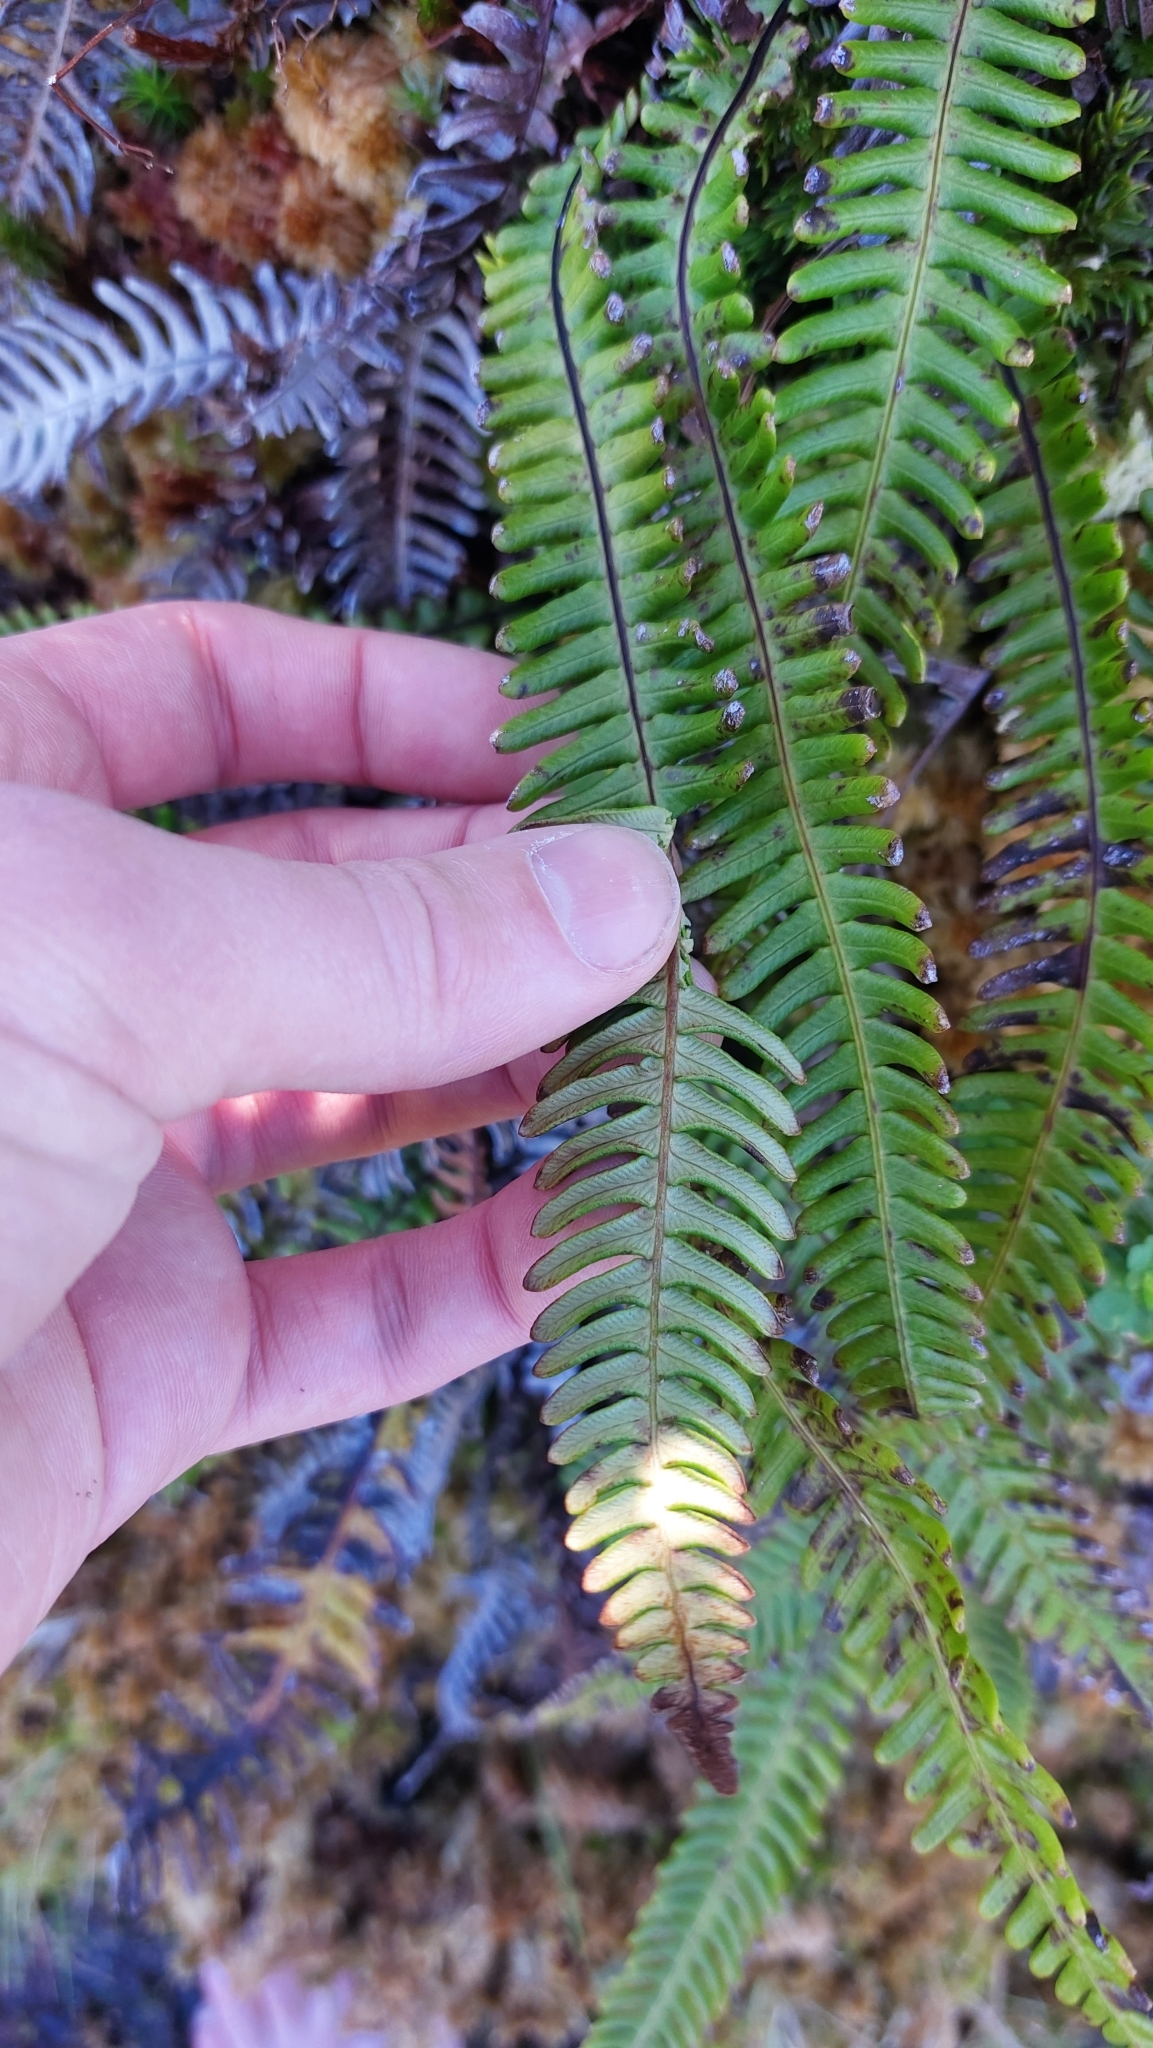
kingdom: Plantae
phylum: Tracheophyta
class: Polypodiopsida
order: Polypodiales
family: Blechnaceae
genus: Struthiopteris
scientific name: Struthiopteris spicant
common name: Deer fern
